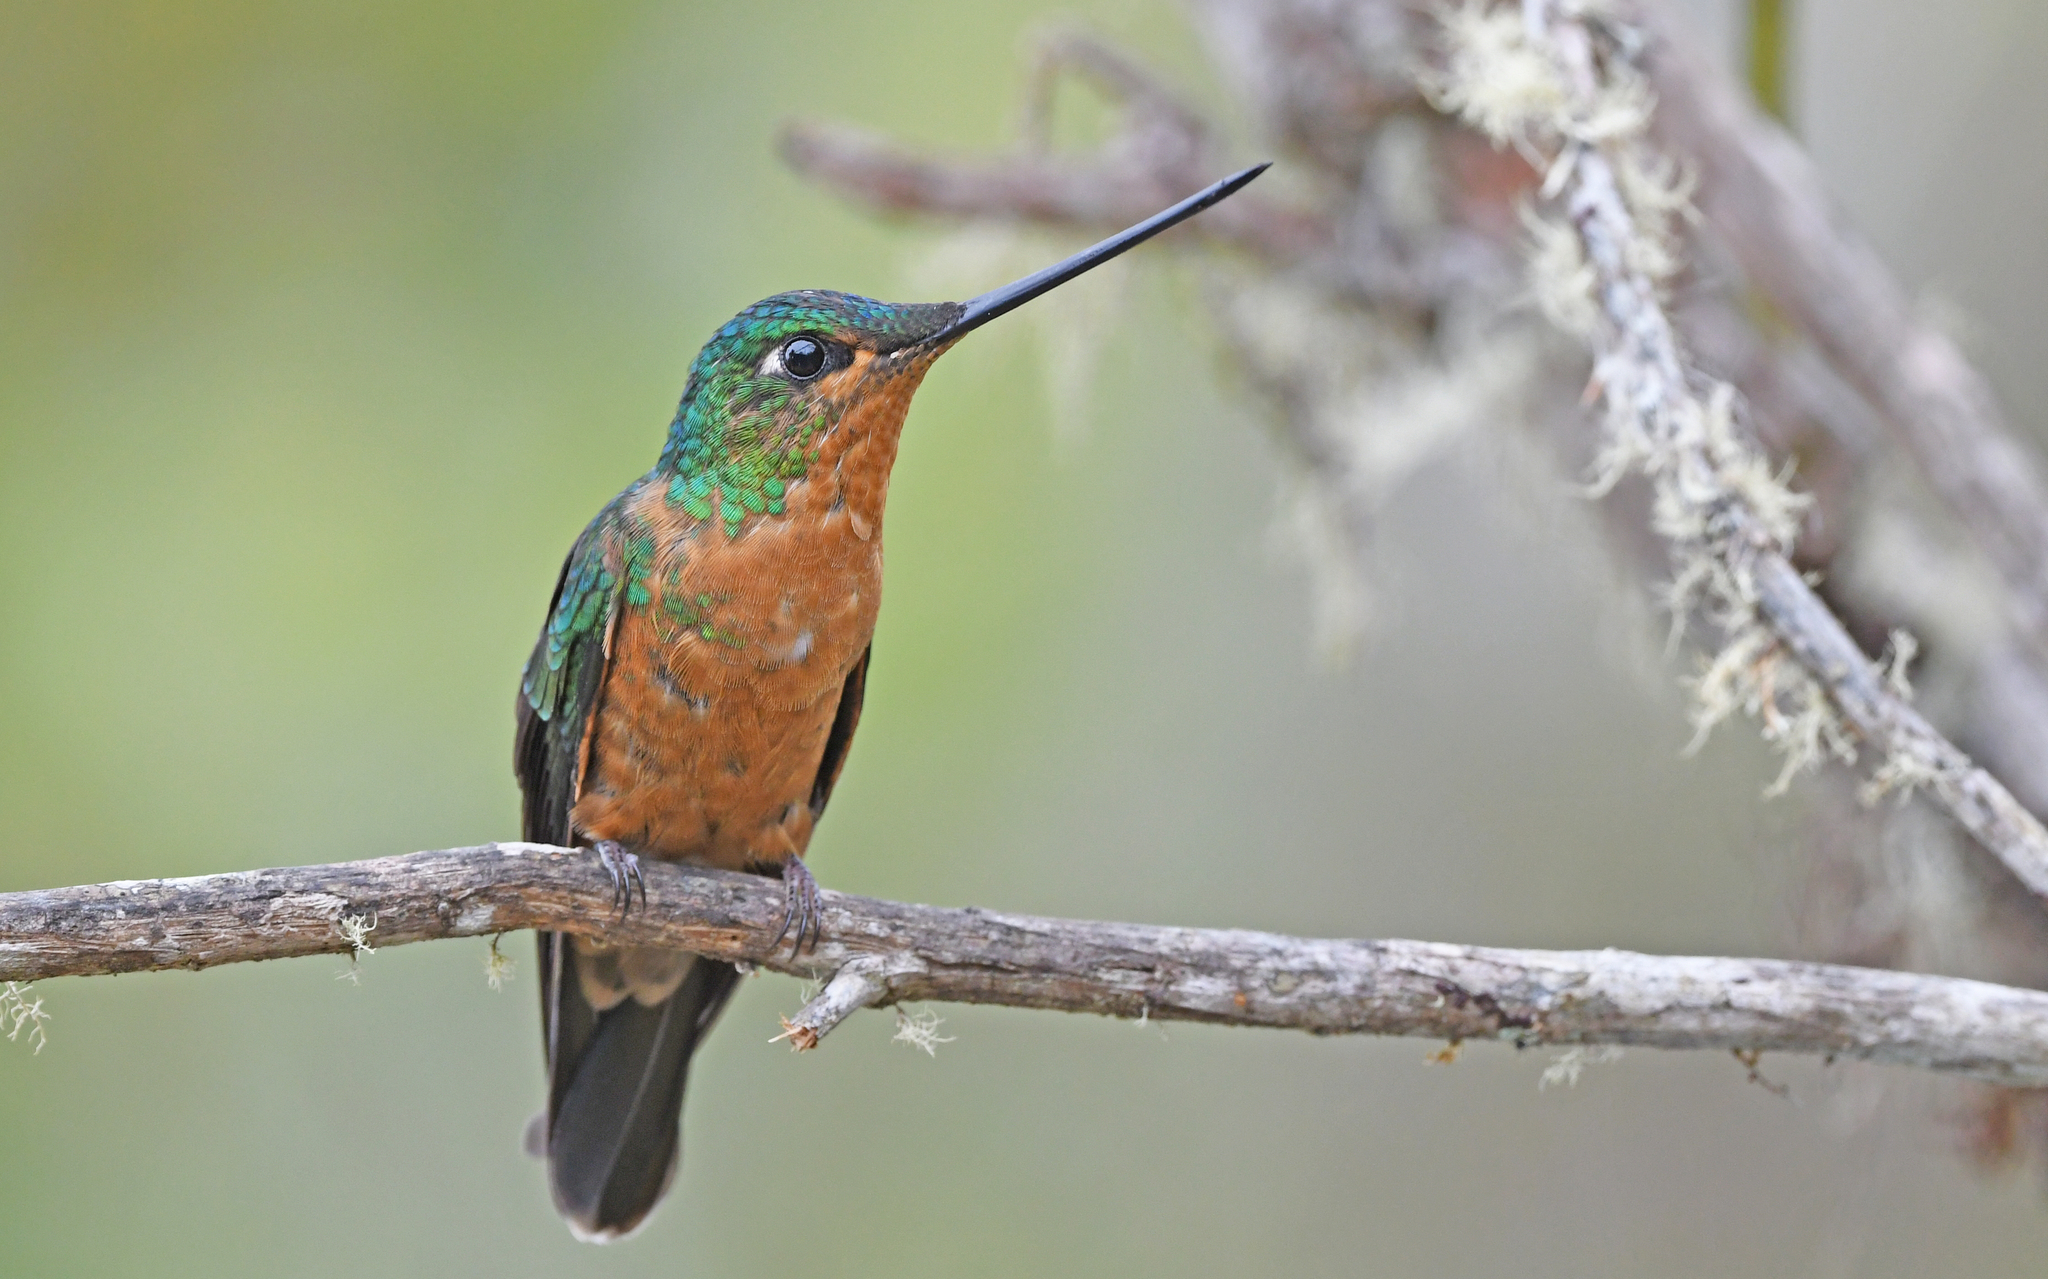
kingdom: Animalia
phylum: Chordata
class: Aves
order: Apodiformes
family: Trochilidae
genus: Coeligena
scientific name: Coeligena phalerata
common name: White-tailed starfrontlet
